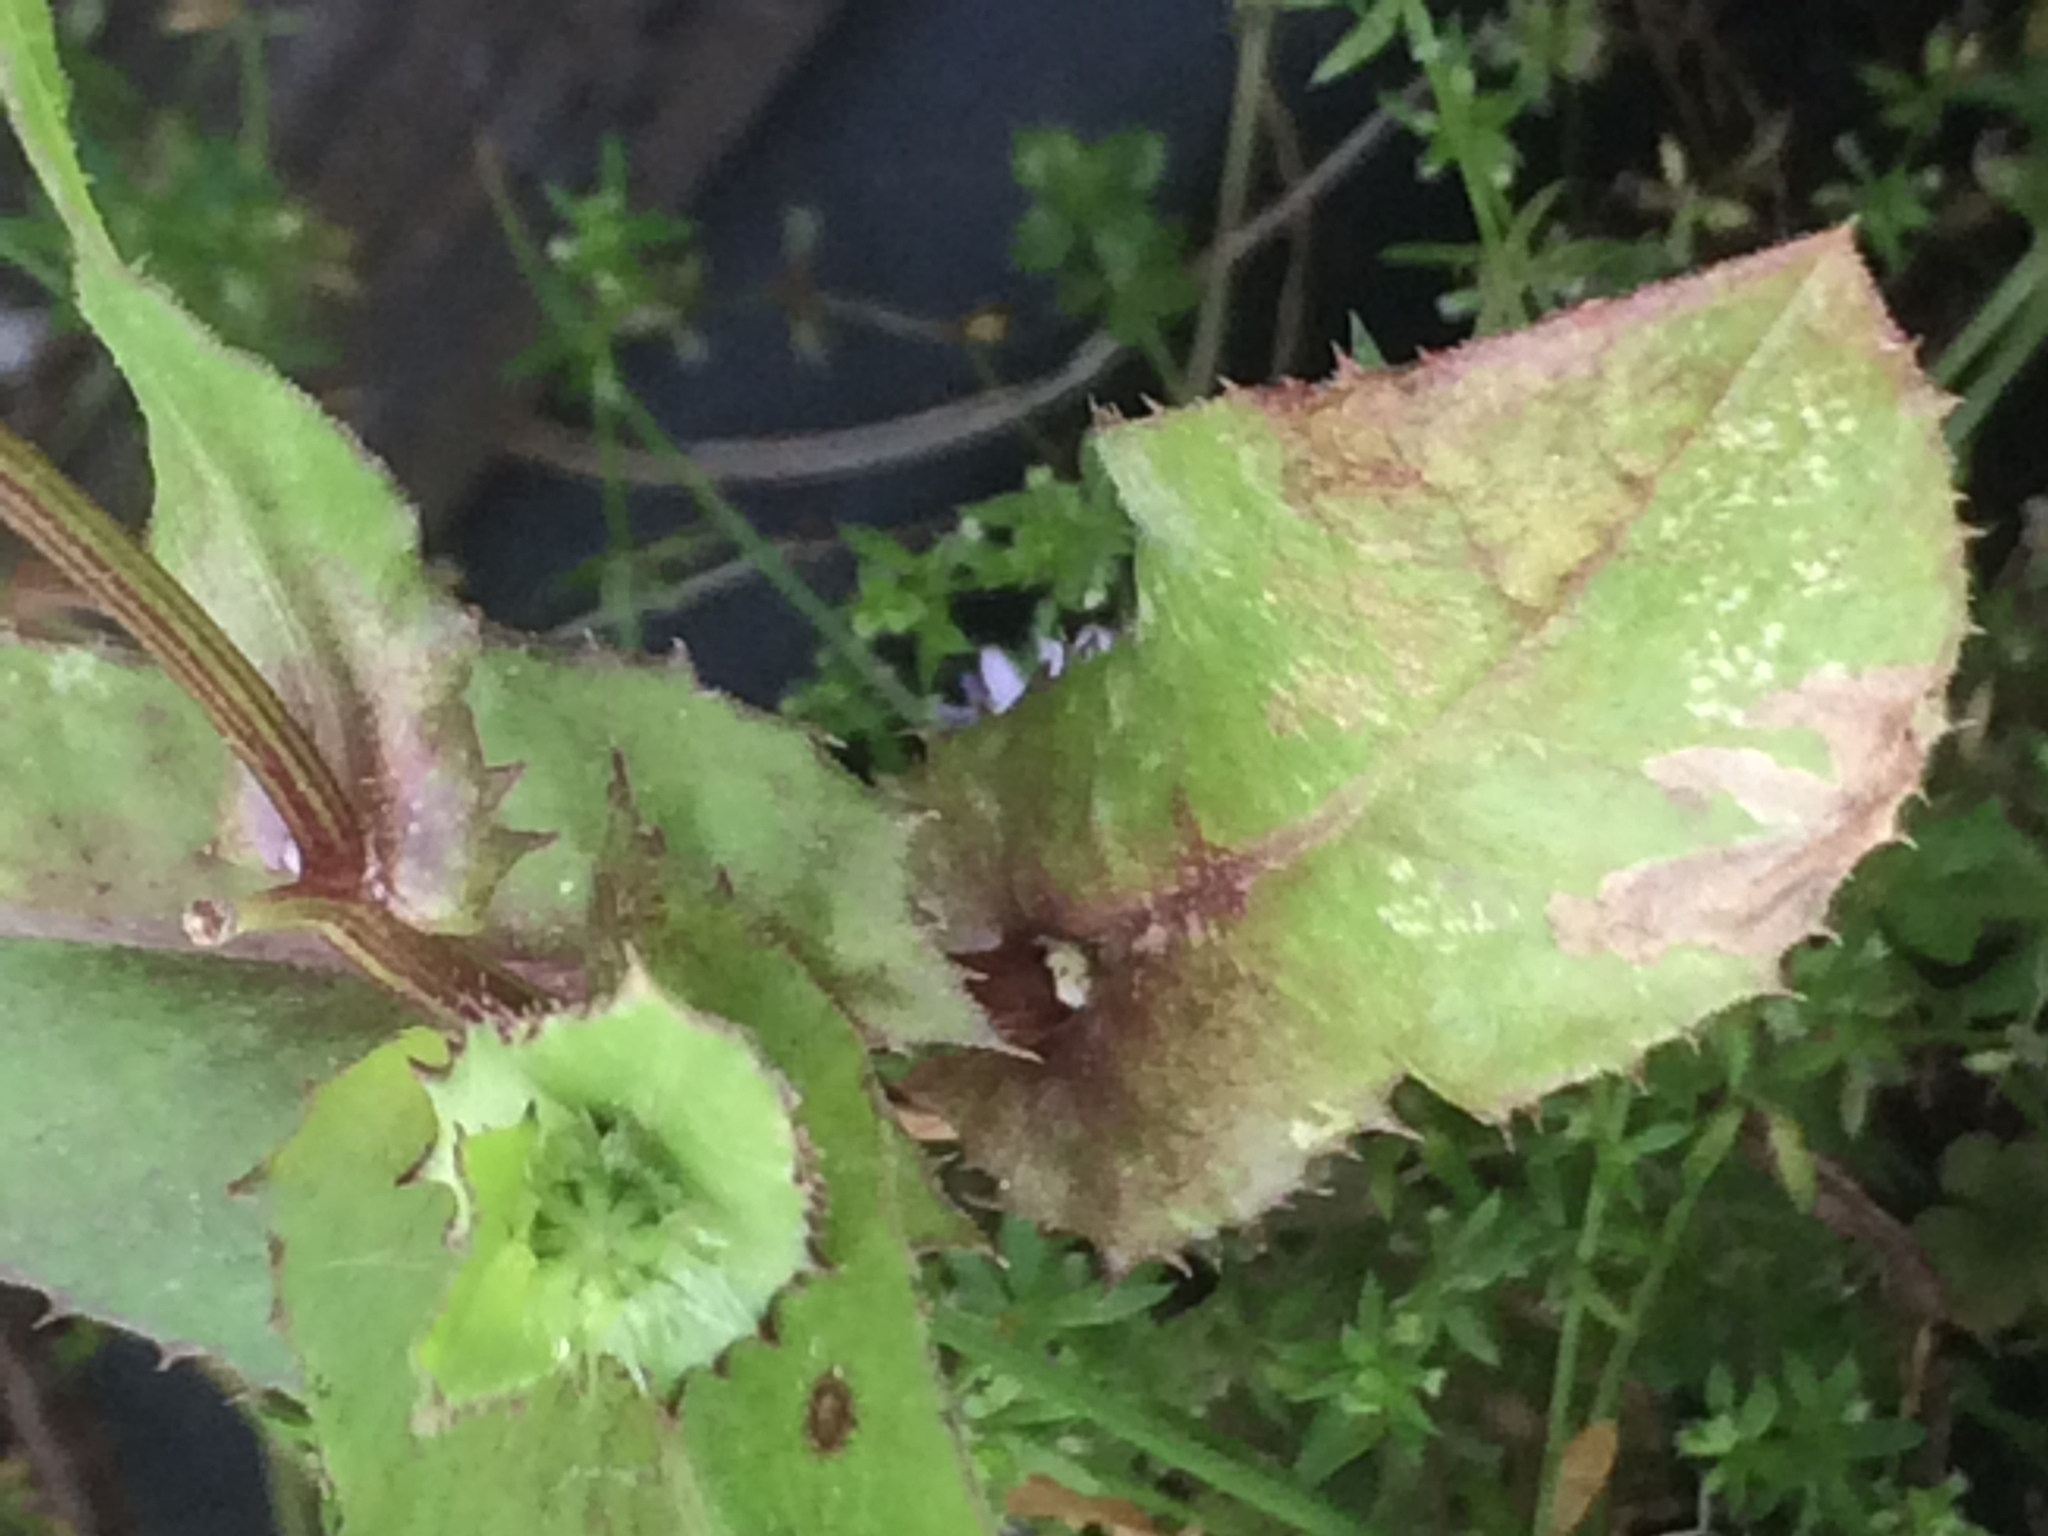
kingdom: Plantae
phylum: Tracheophyta
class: Magnoliopsida
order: Asterales
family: Asteraceae
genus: Urospermum
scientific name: Urospermum picroides
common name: False hawkbit
